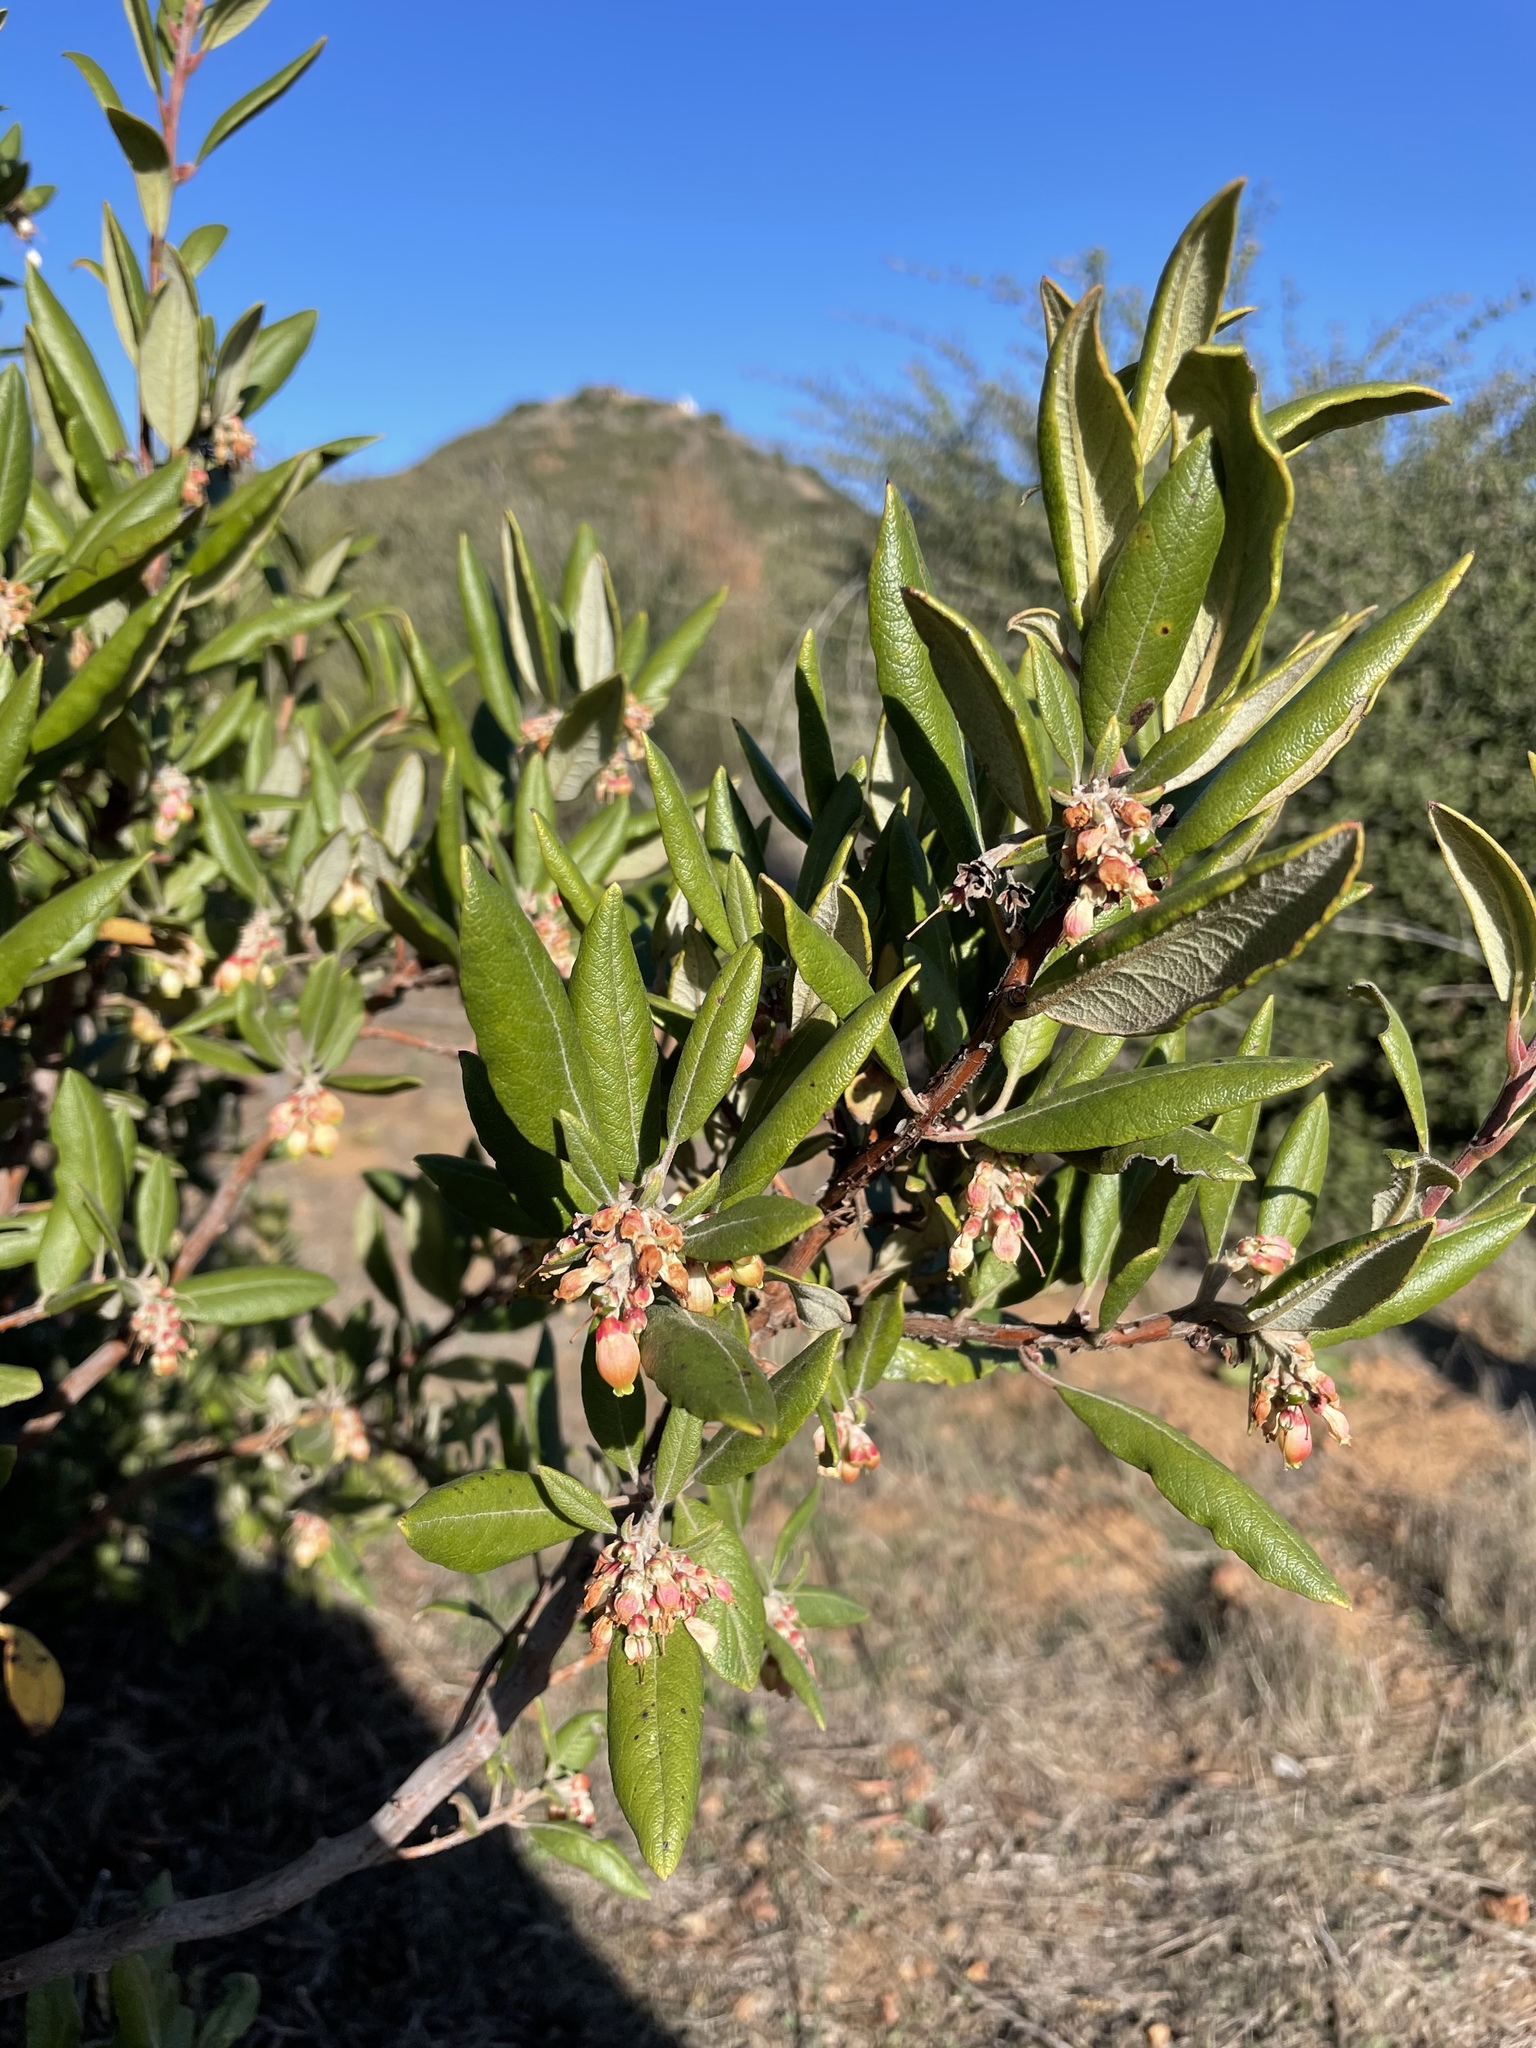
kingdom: Plantae
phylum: Tracheophyta
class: Magnoliopsida
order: Ericales
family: Ericaceae
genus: Arctostaphylos
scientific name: Arctostaphylos bicolor
